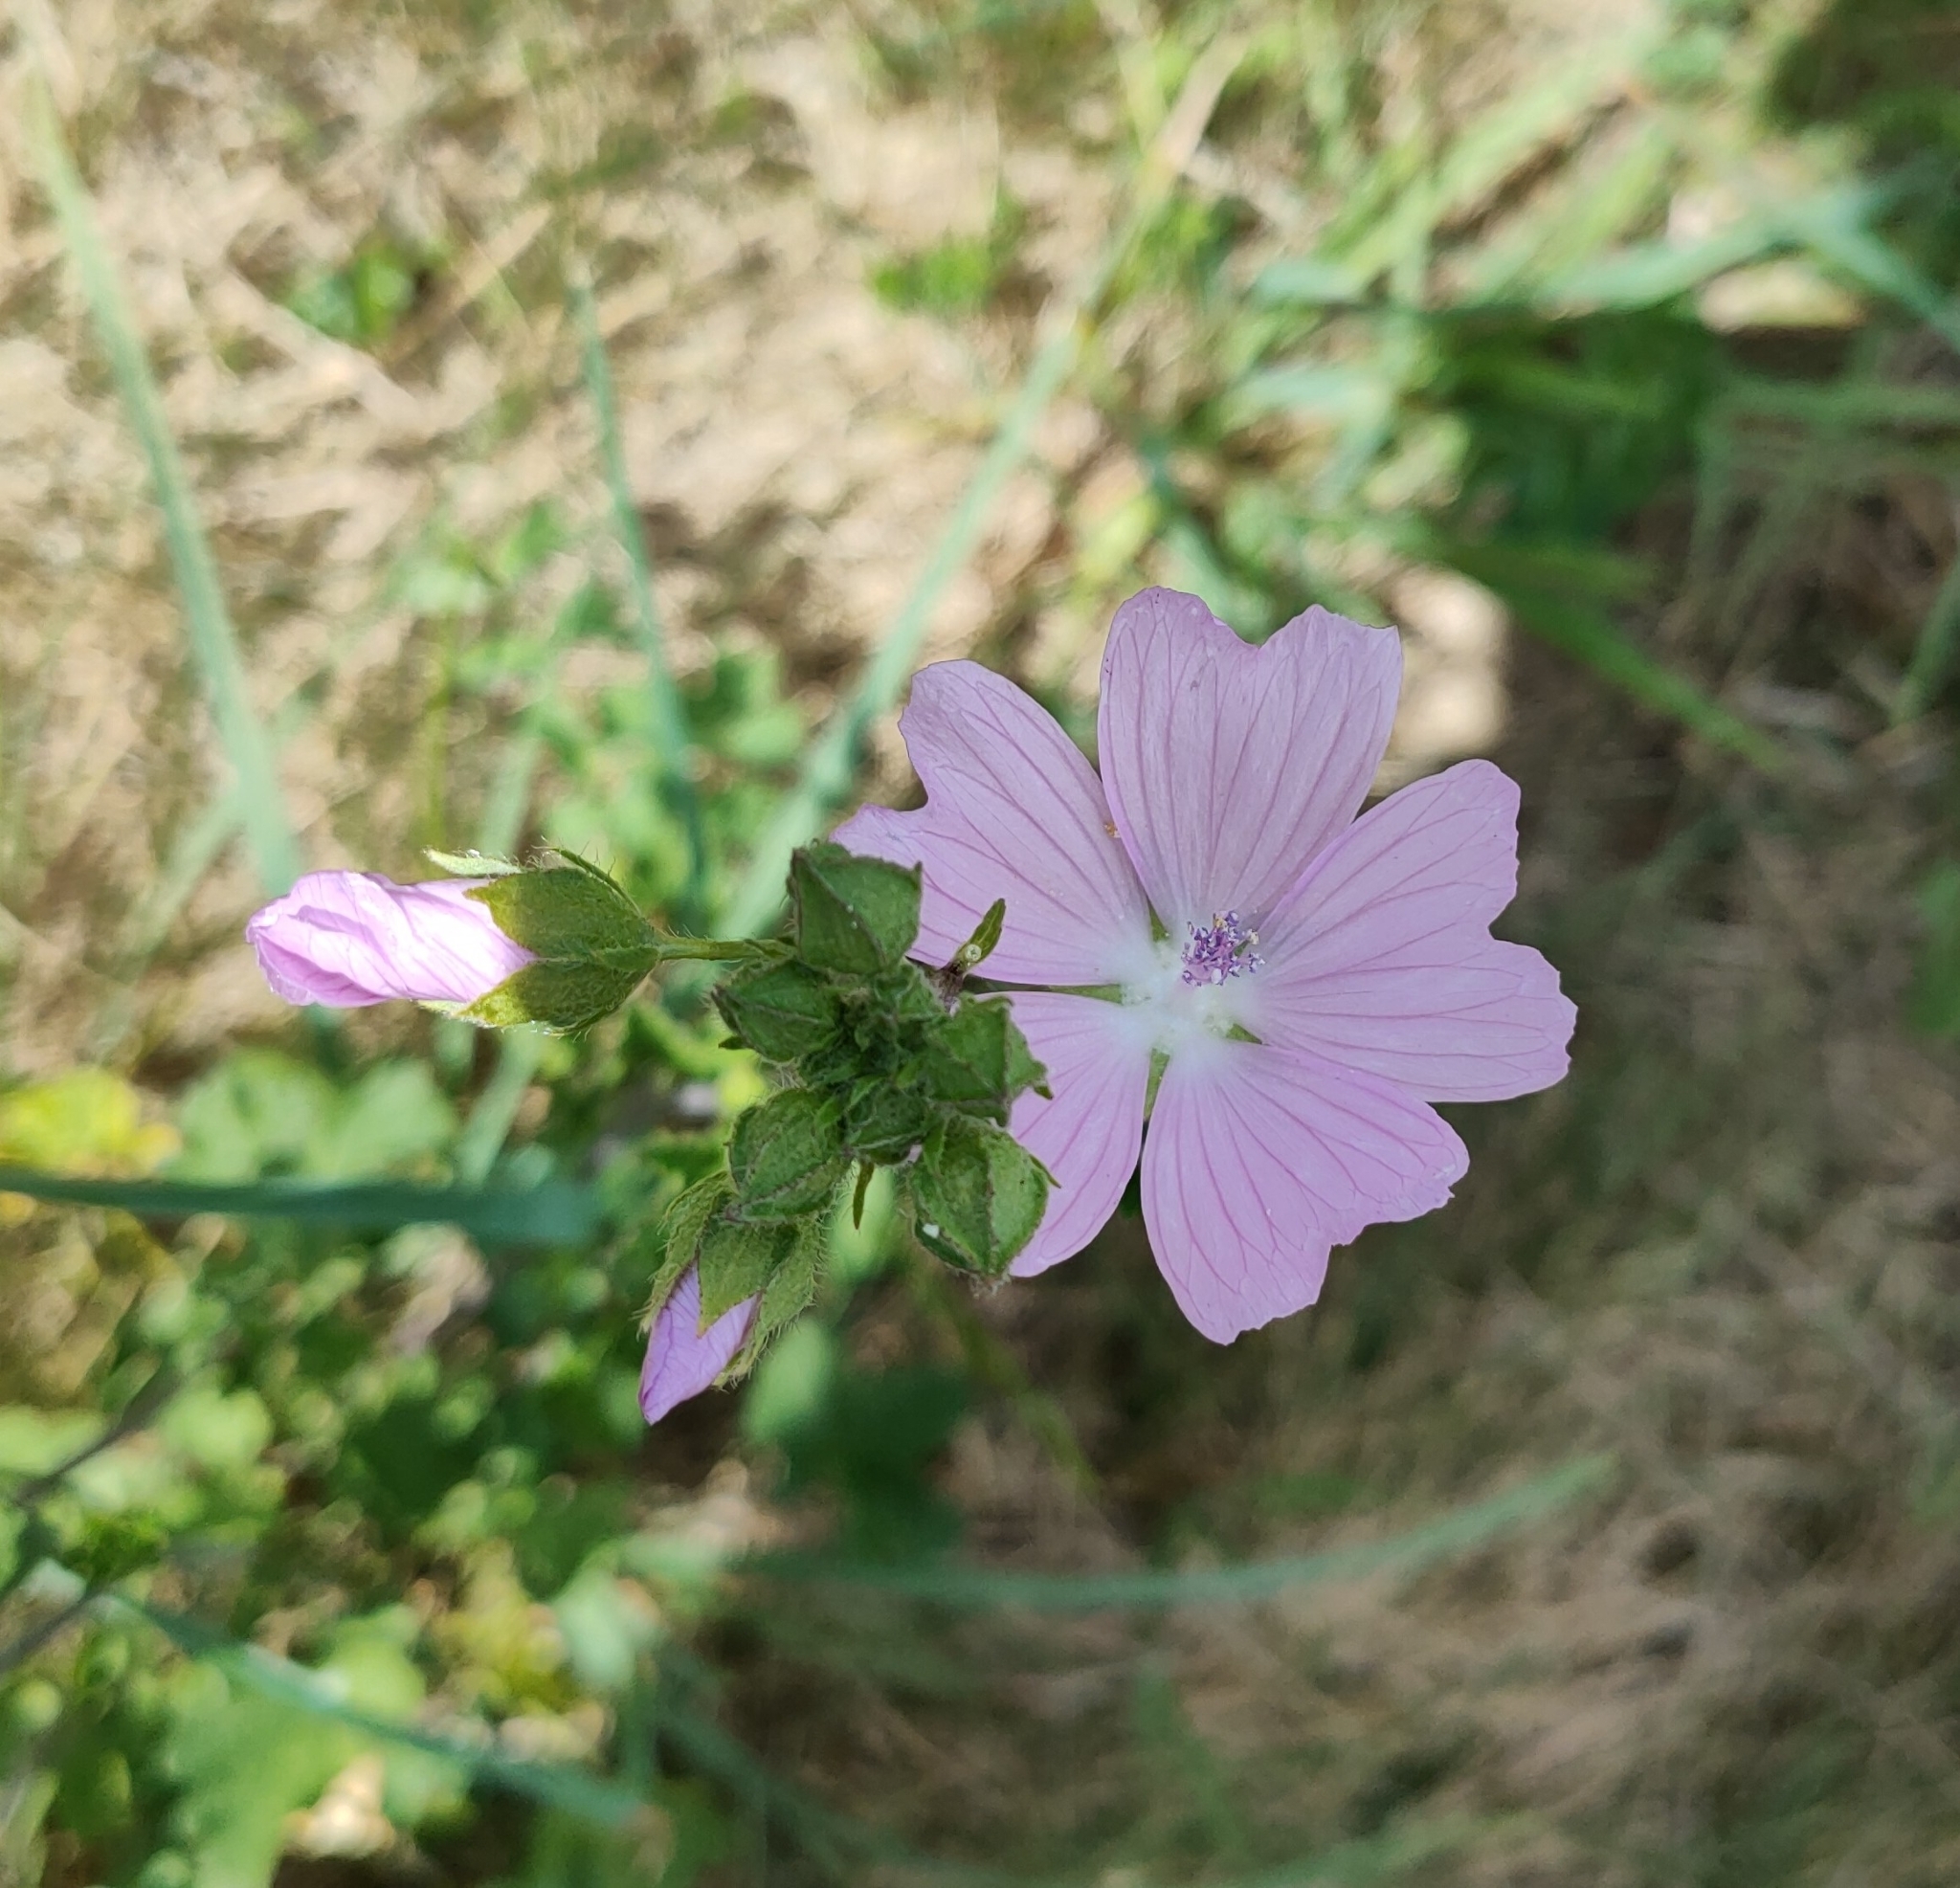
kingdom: Plantae
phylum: Tracheophyta
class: Magnoliopsida
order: Malvales
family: Malvaceae
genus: Malva
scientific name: Malva moschata
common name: Musk mallow
